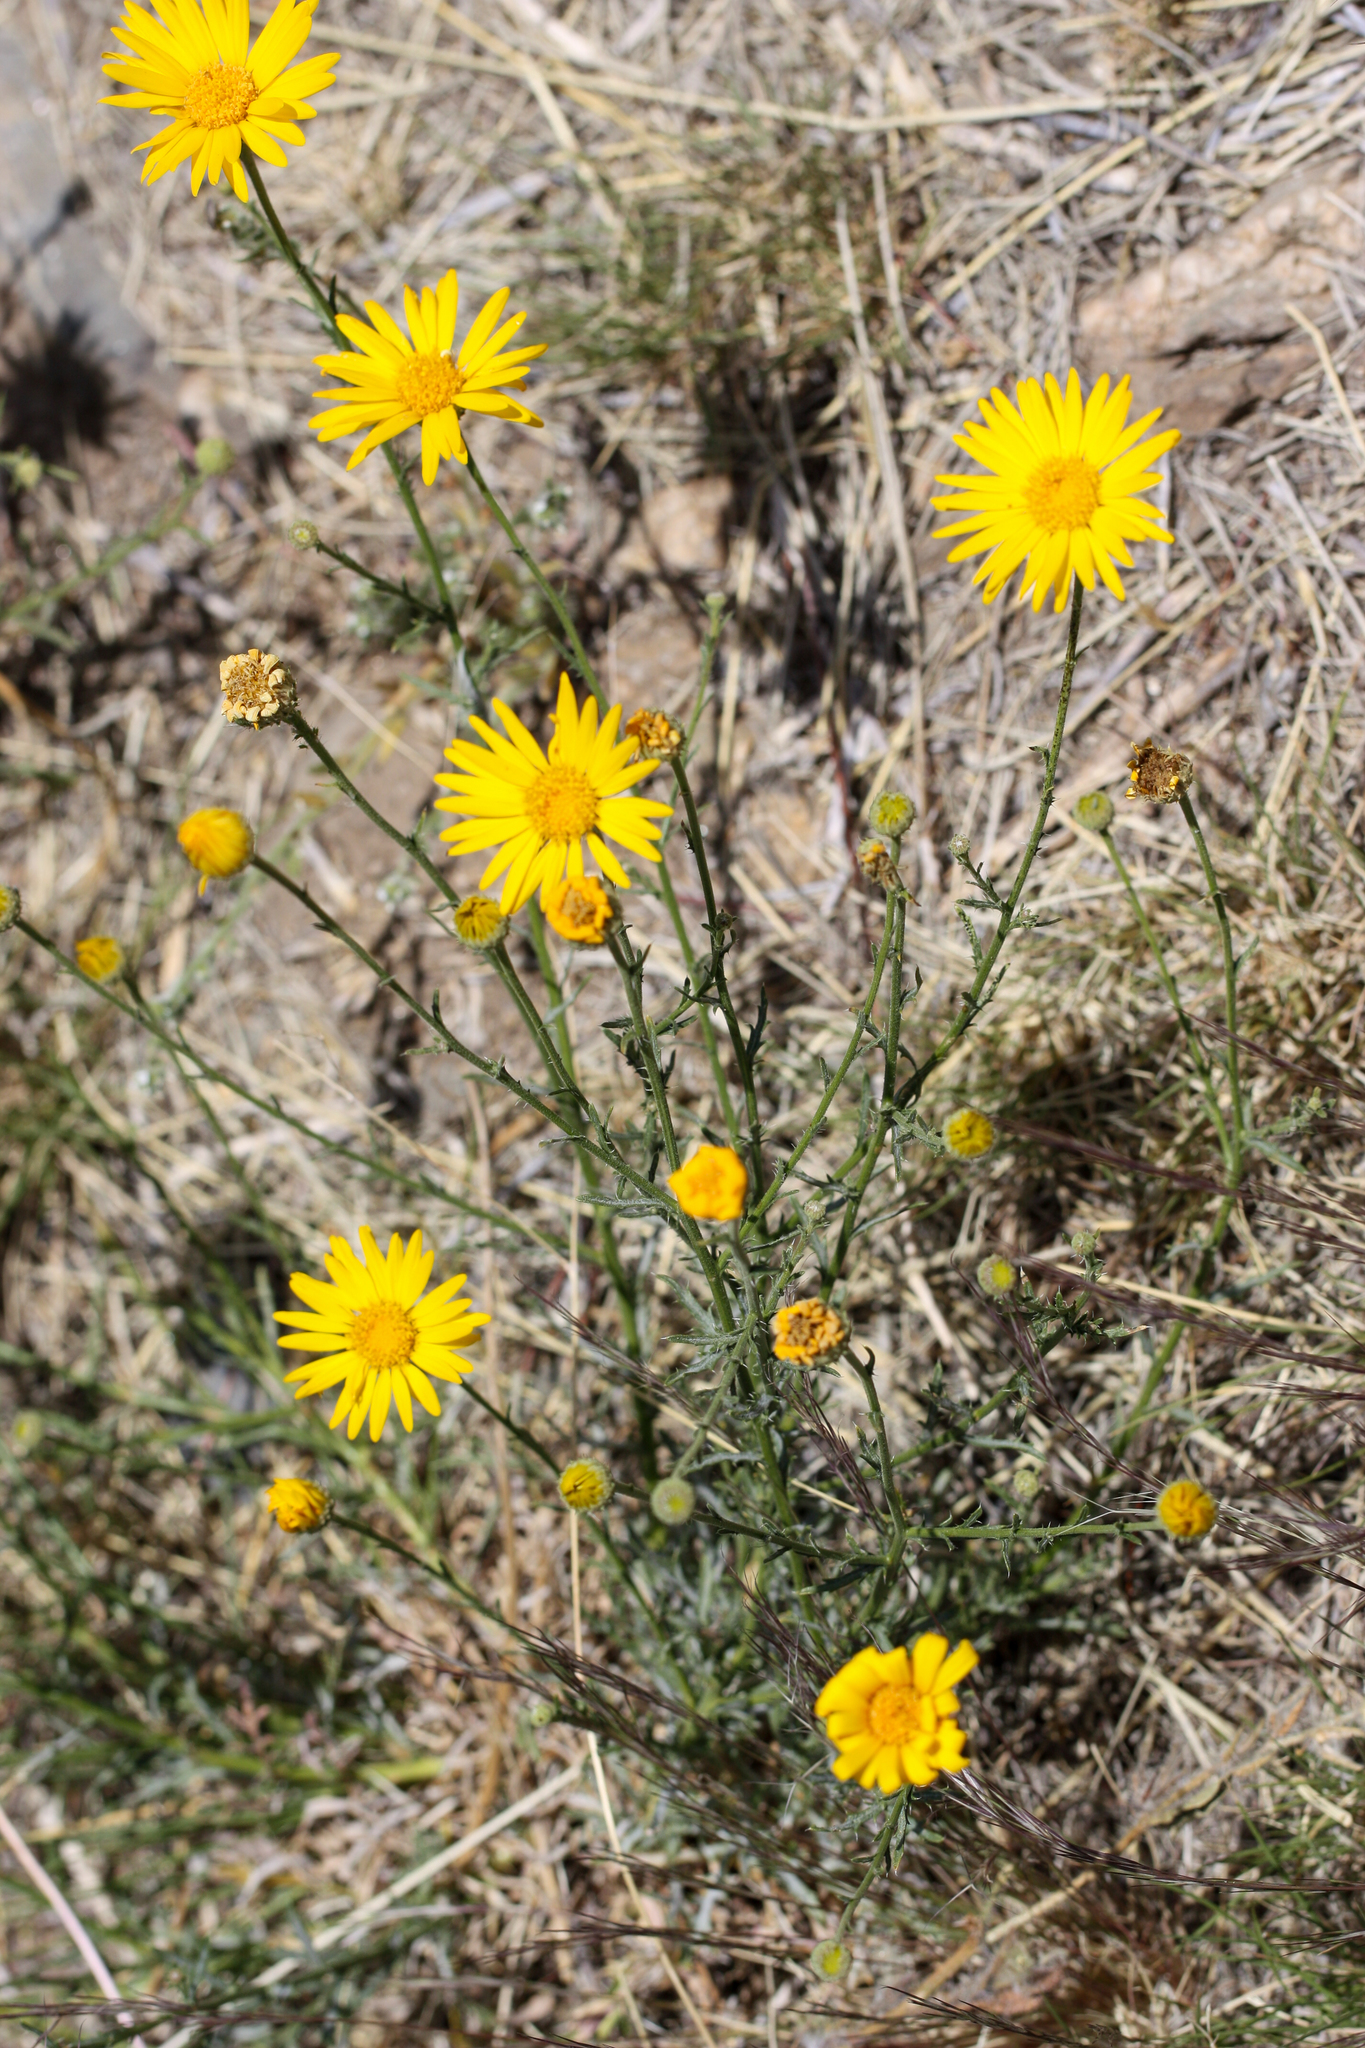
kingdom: Plantae
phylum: Tracheophyta
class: Magnoliopsida
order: Asterales
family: Asteraceae
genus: Xanthisma
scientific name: Xanthisma spinulosum
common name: Spiny goldenweed
